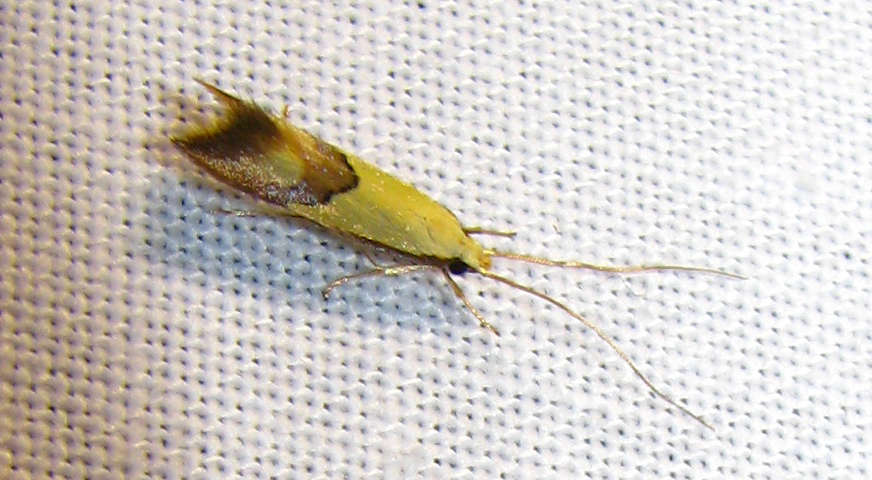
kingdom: Animalia
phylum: Arthropoda
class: Insecta
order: Lepidoptera
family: Lecithoceridae
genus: Crocanthes
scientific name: Crocanthes glycina
